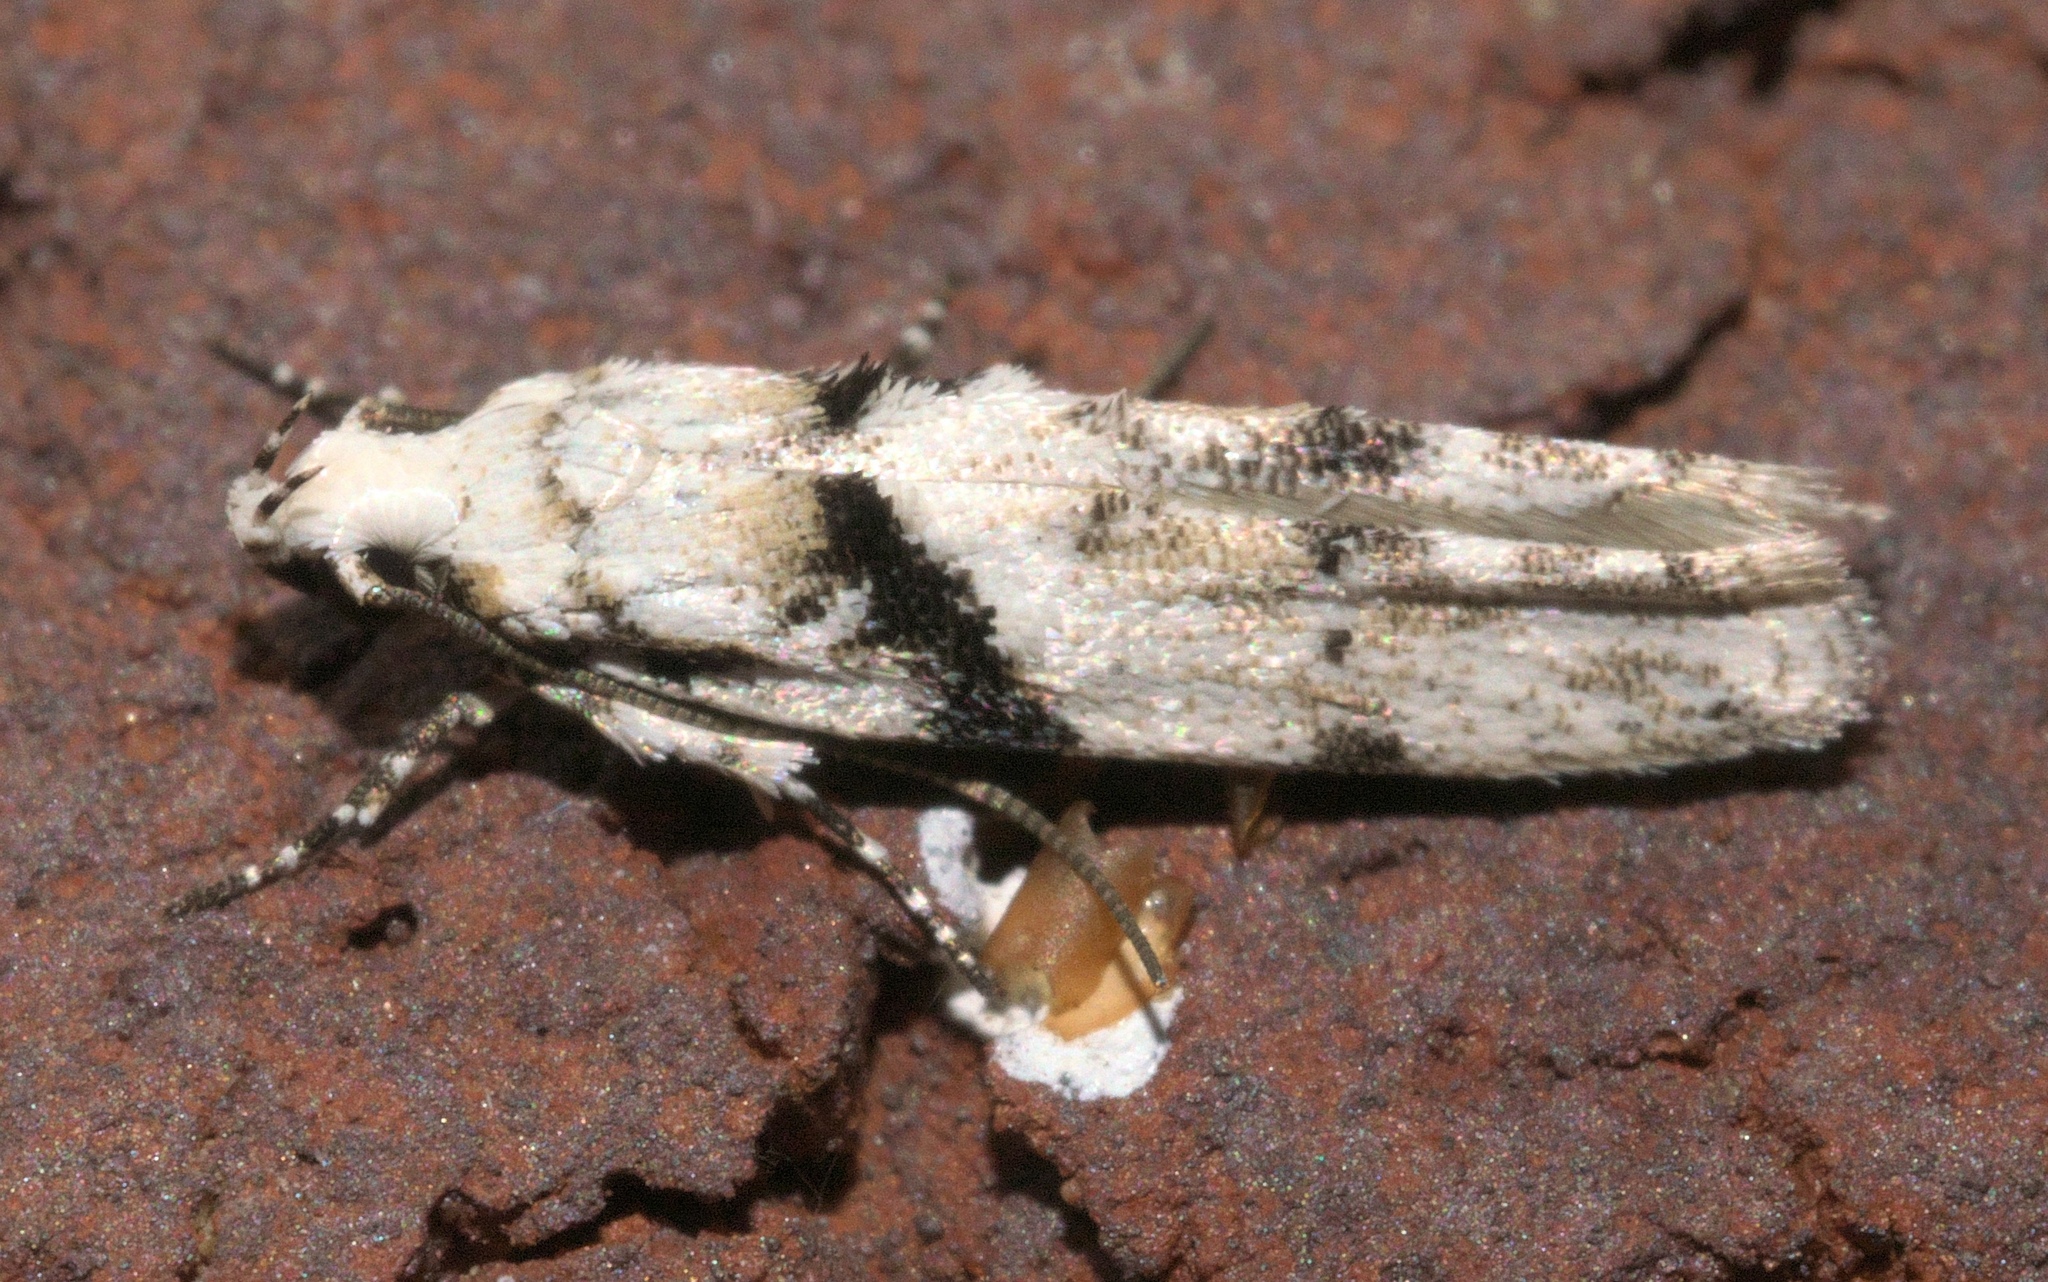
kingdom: Animalia
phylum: Arthropoda
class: Insecta
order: Lepidoptera
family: Gelechiidae
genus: Arogalea
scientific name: Arogalea cristifasciella
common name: White stripe-backed moth
